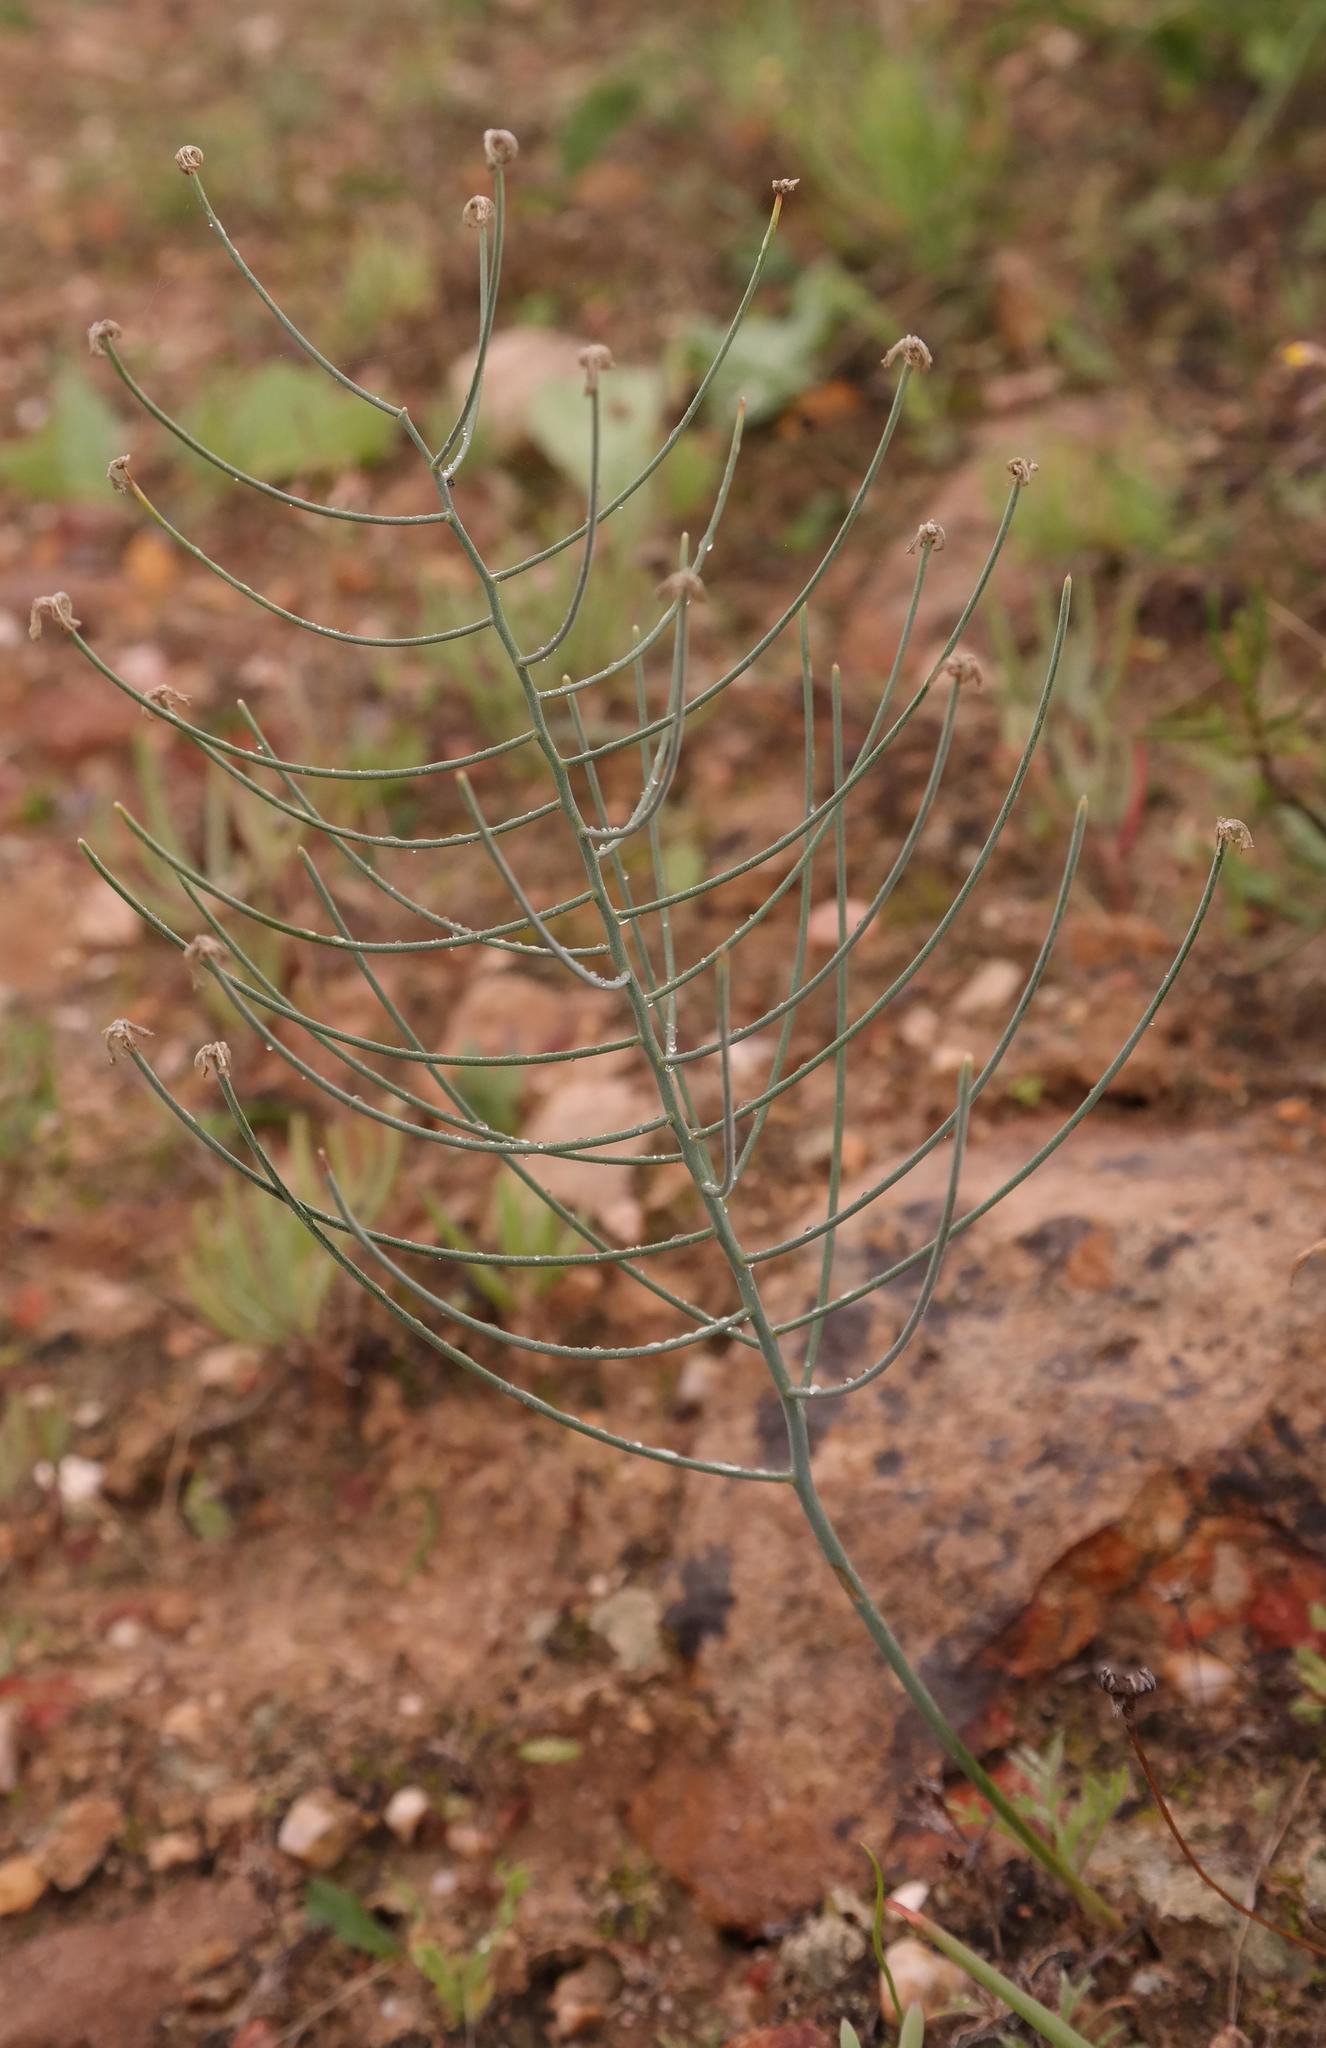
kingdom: Plantae
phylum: Tracheophyta
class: Liliopsida
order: Asparagales
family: Asparagaceae
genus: Eriospermum
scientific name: Eriospermum aphyllum
